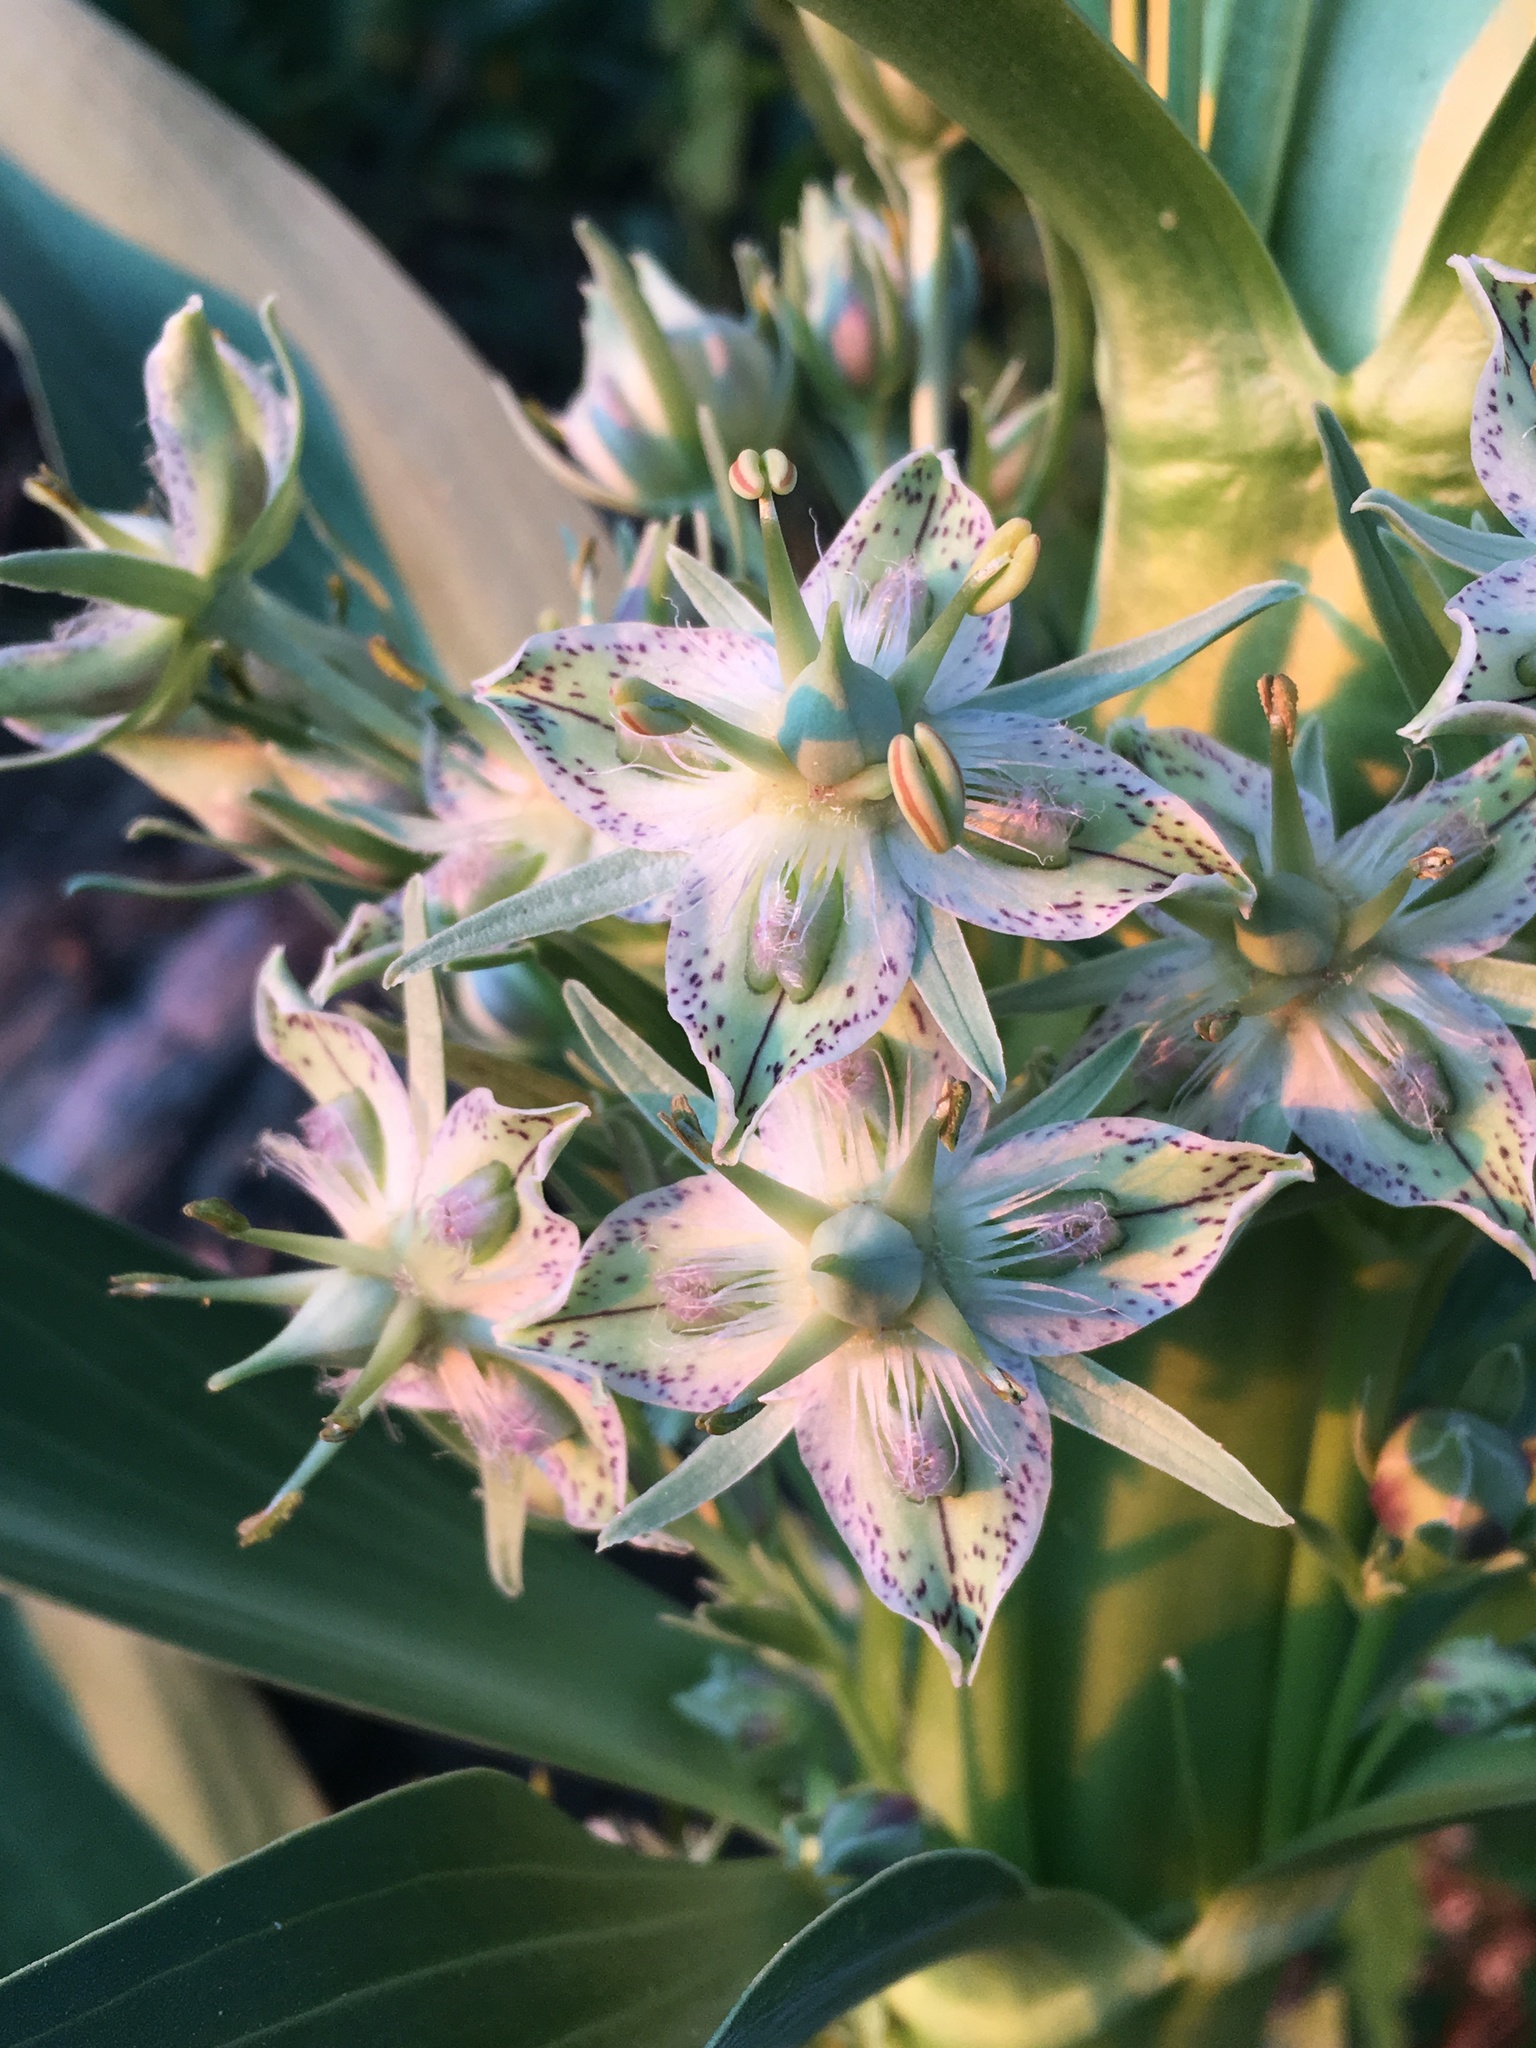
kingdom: Plantae
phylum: Tracheophyta
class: Magnoliopsida
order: Gentianales
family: Gentianaceae
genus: Frasera
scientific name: Frasera speciosa
